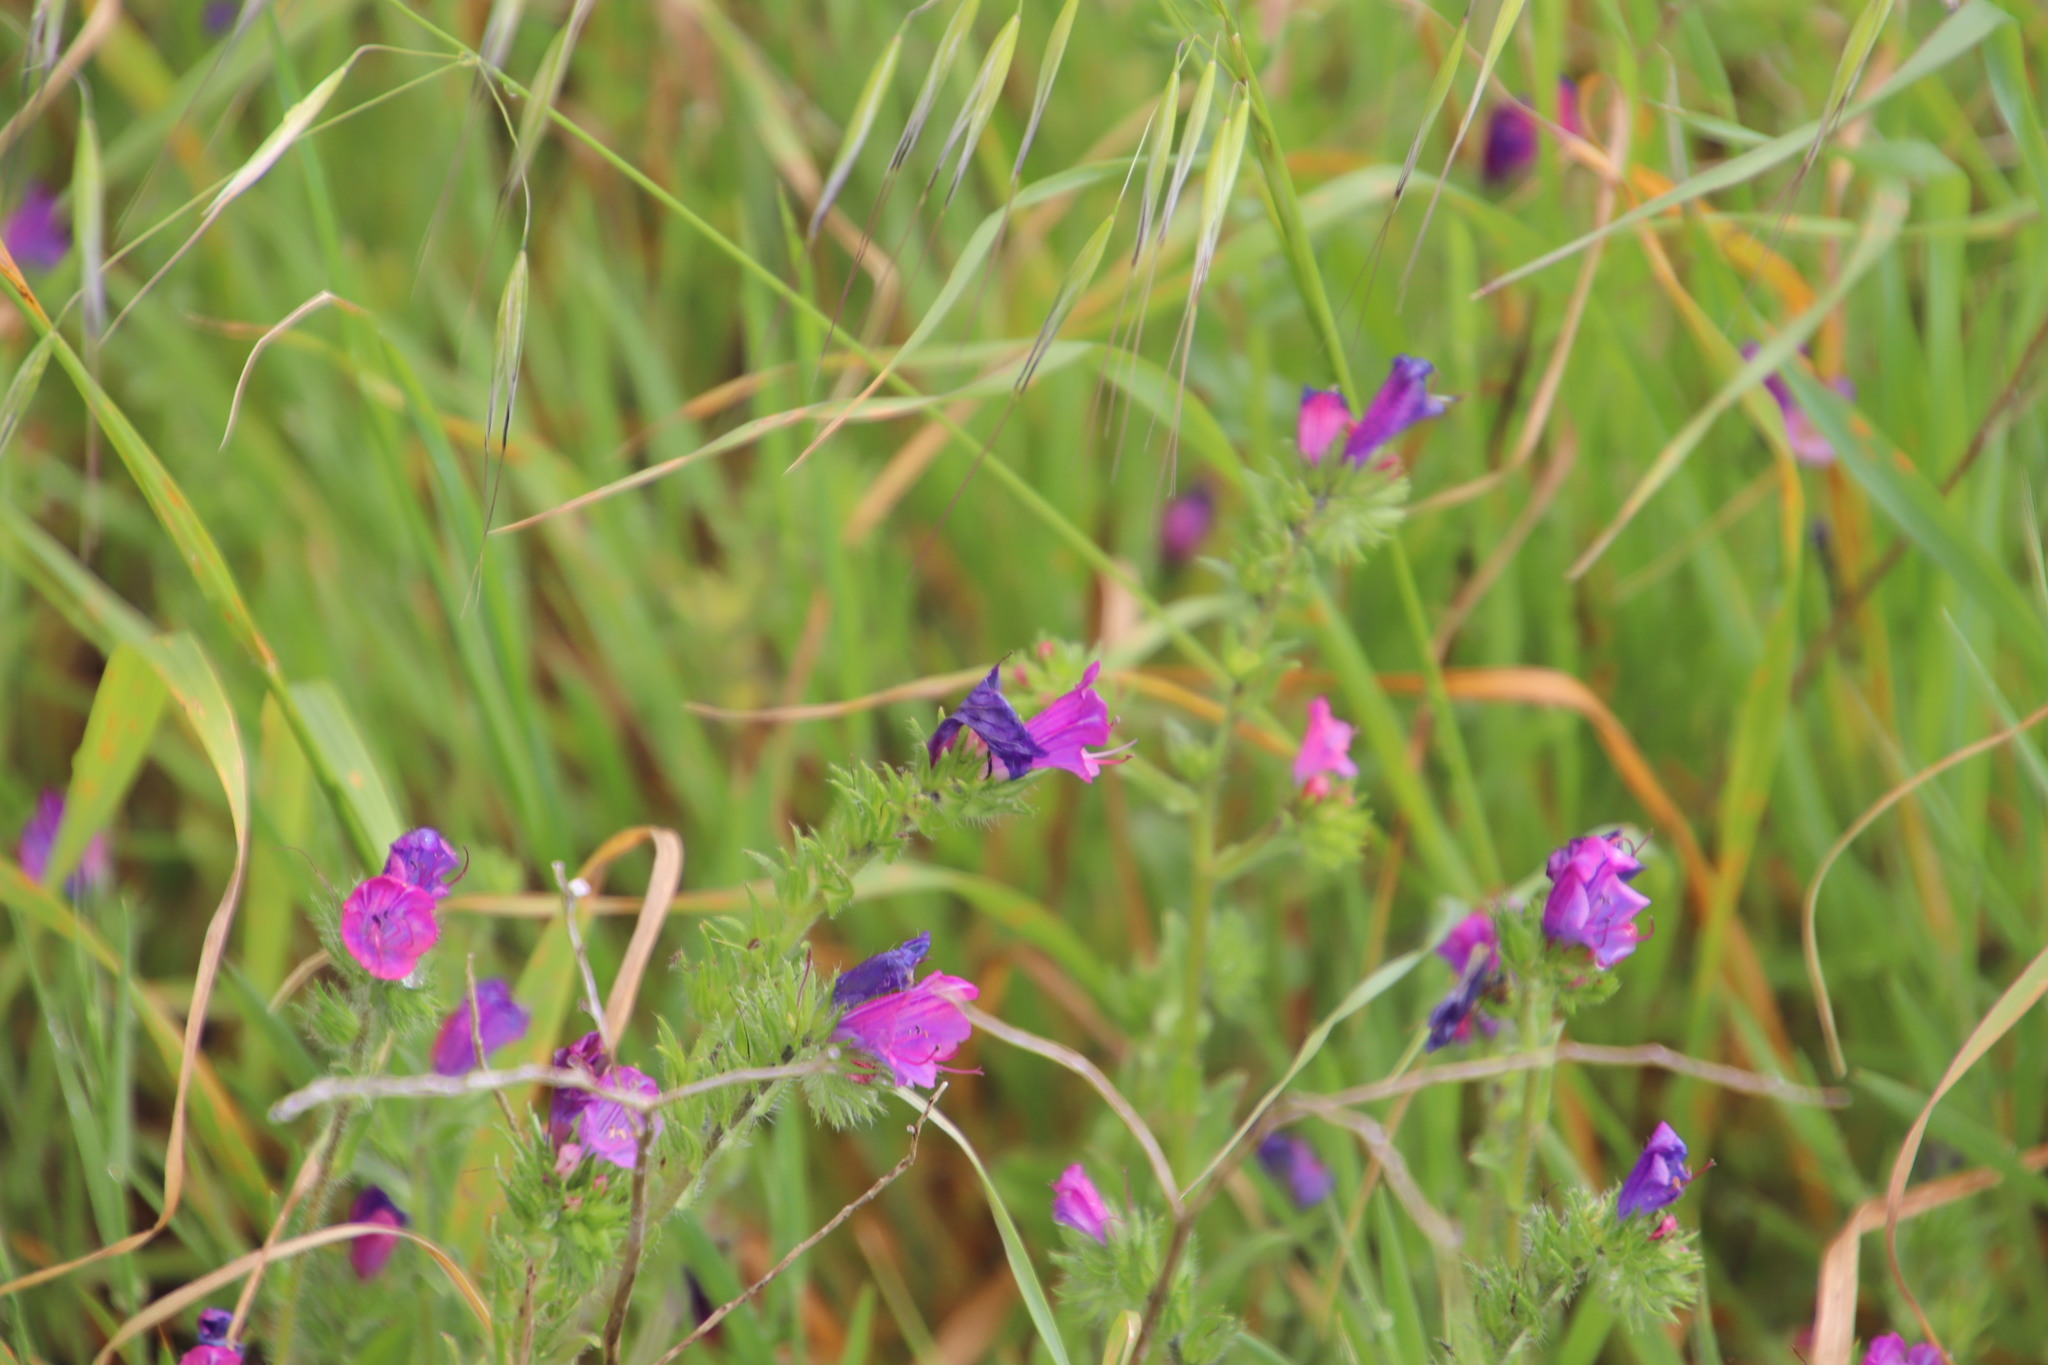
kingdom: Plantae
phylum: Tracheophyta
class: Magnoliopsida
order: Boraginales
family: Boraginaceae
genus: Echium
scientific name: Echium plantagineum
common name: Purple viper's-bugloss
